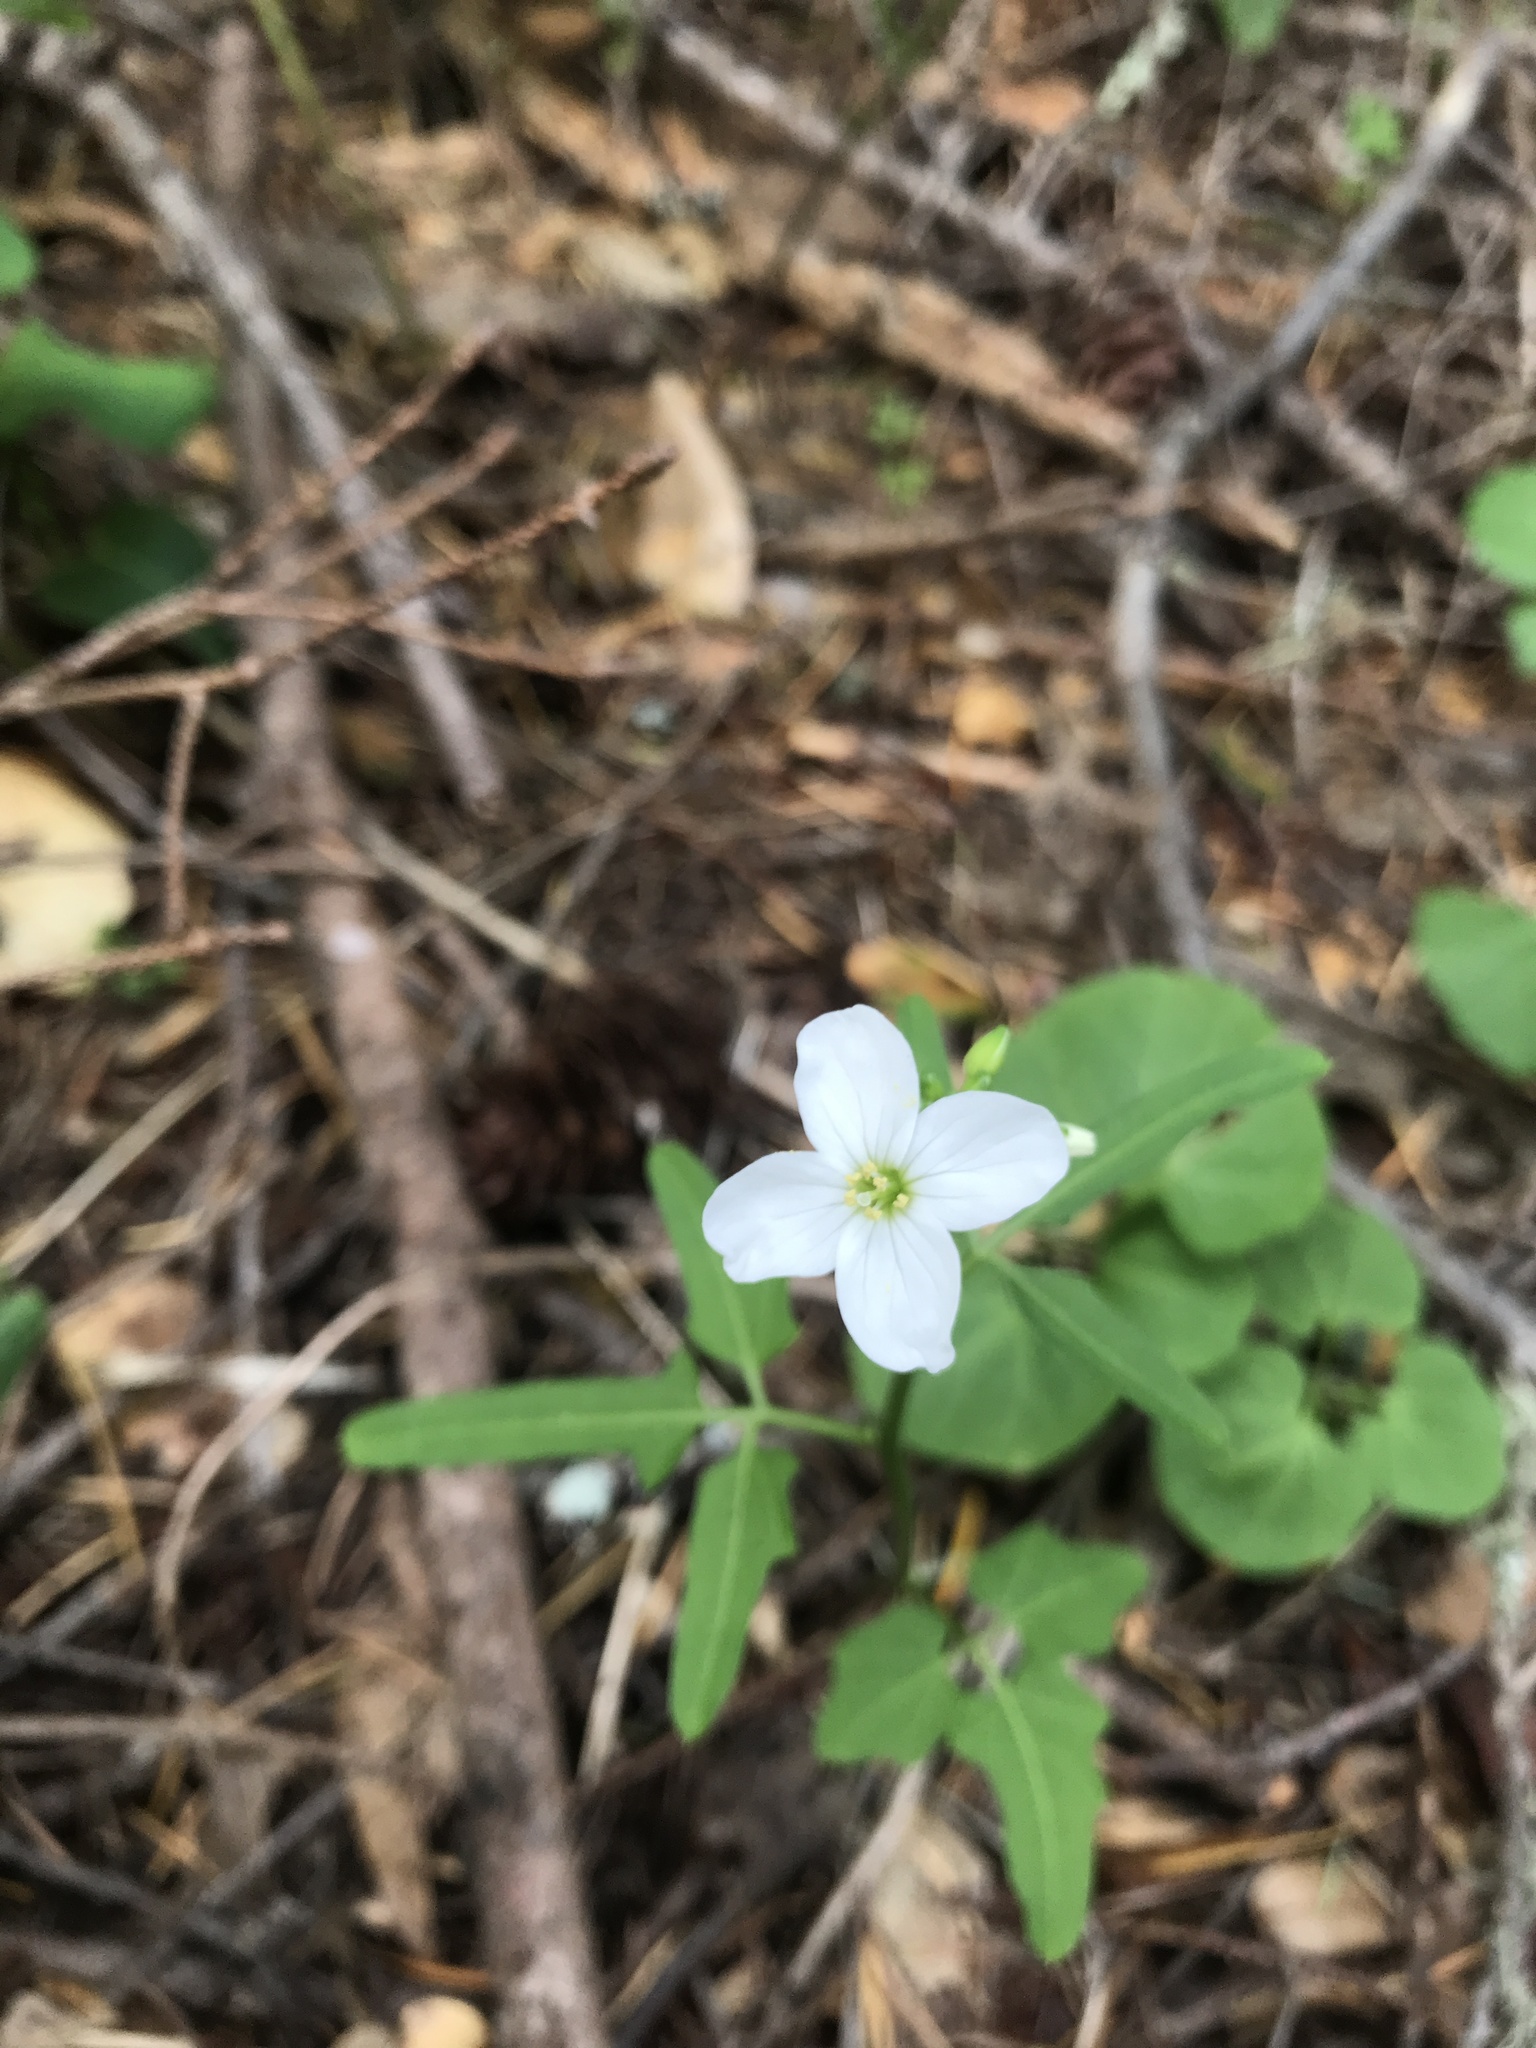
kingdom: Plantae
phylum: Tracheophyta
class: Magnoliopsida
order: Brassicales
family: Brassicaceae
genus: Cardamine
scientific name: Cardamine californica
